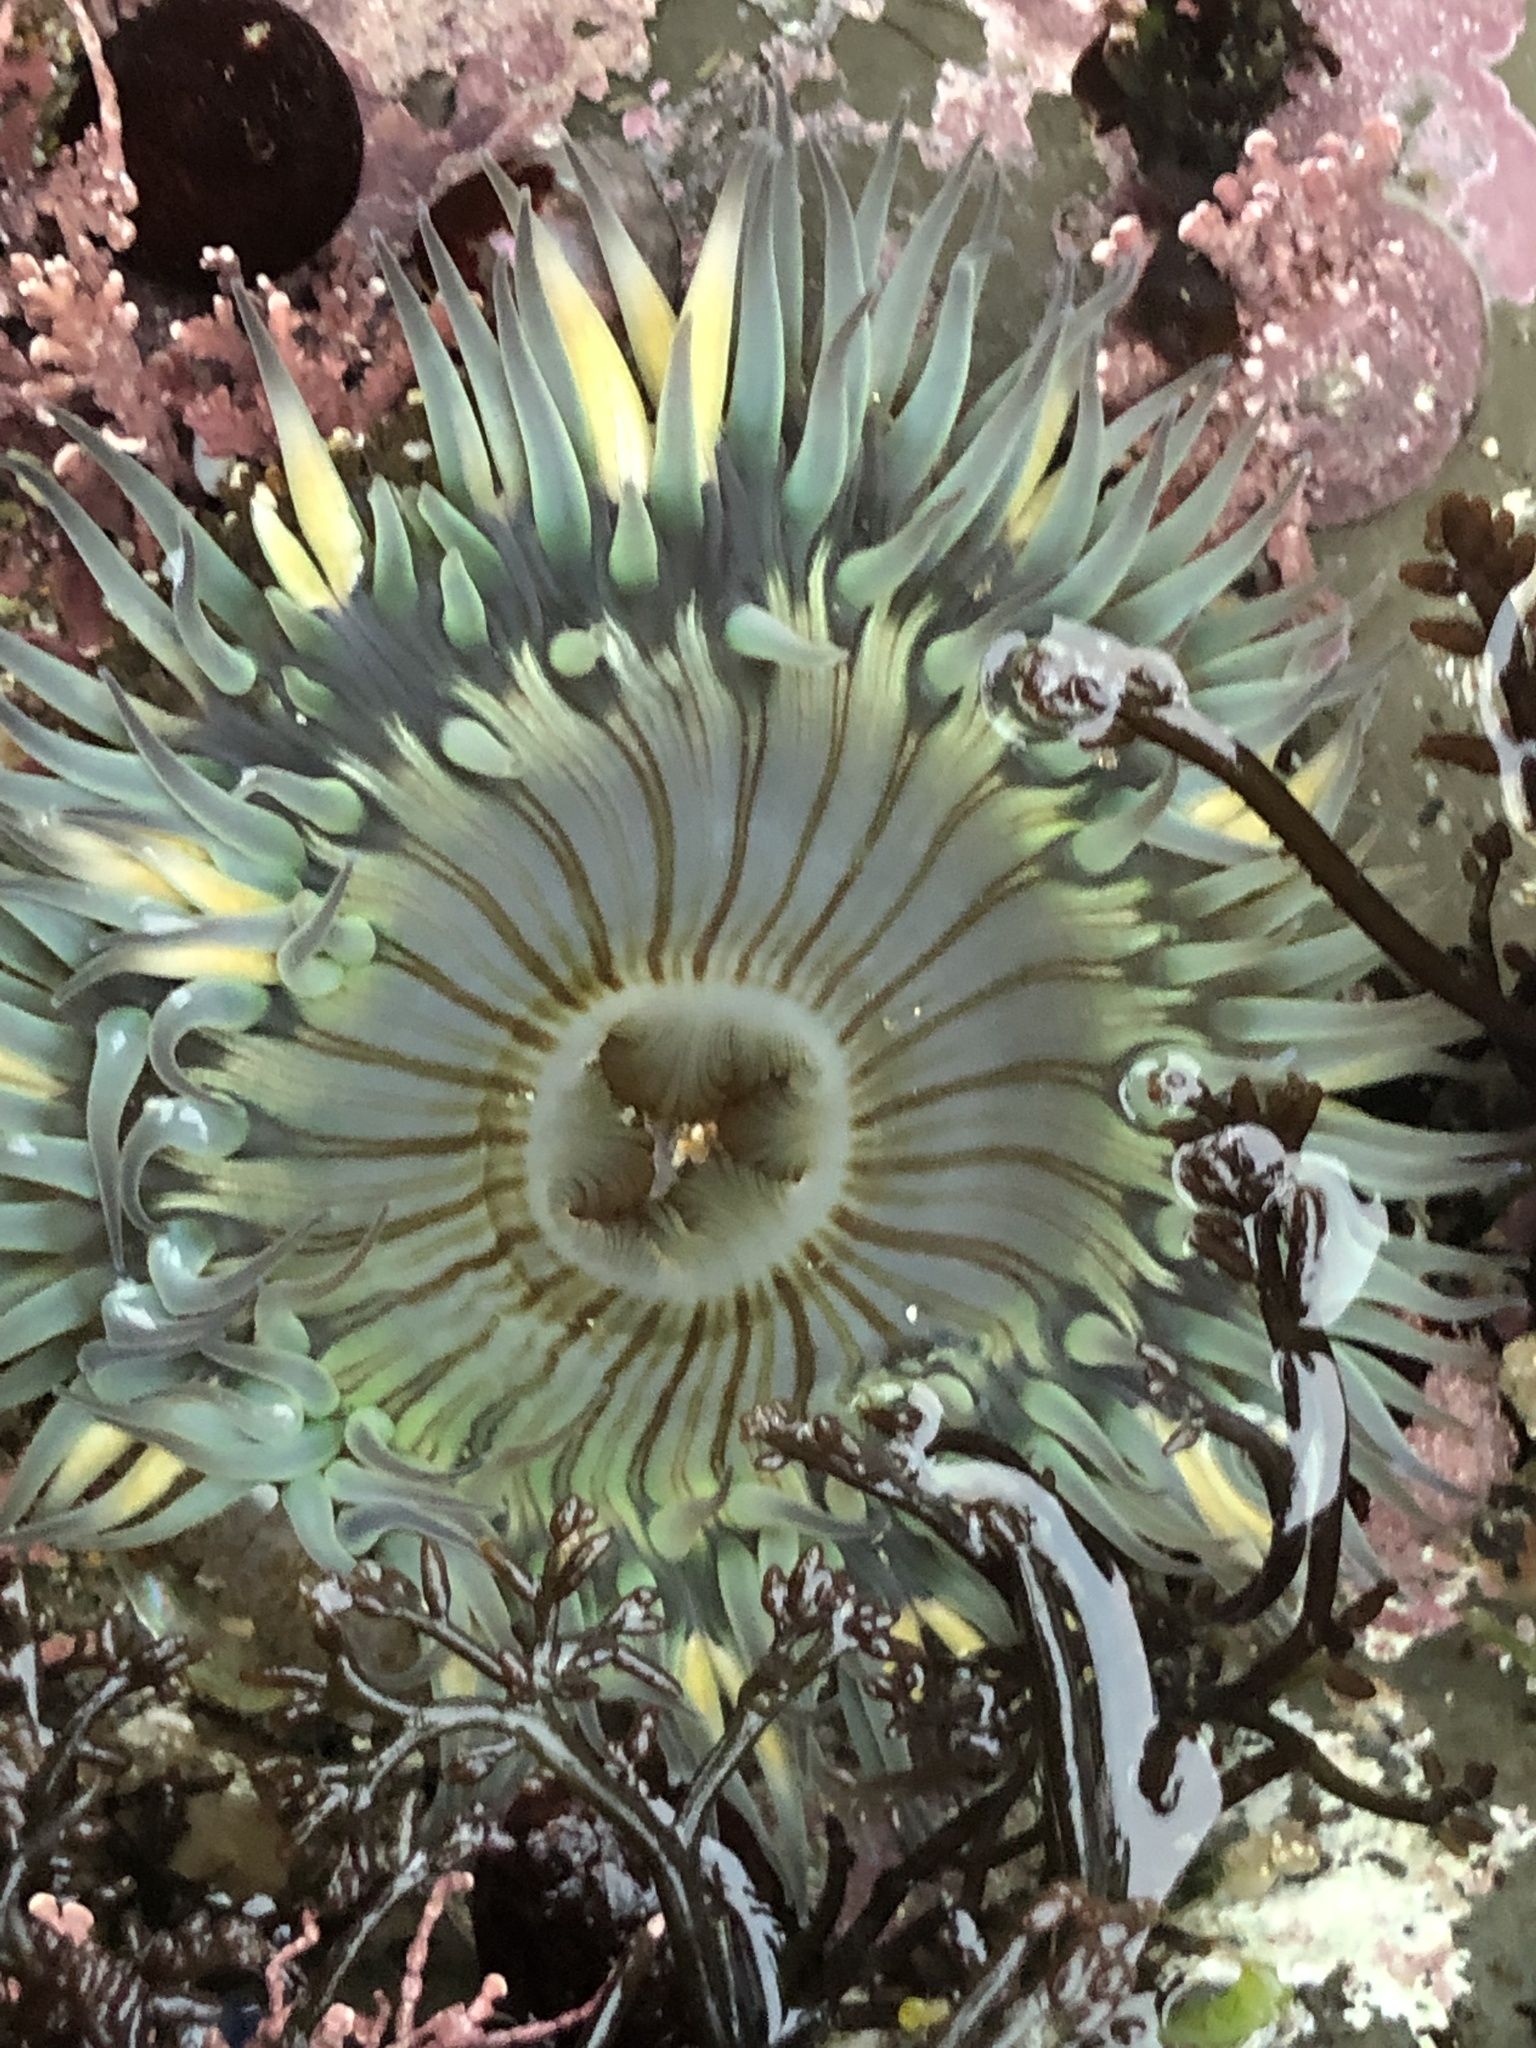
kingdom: Animalia
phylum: Cnidaria
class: Anthozoa
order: Actiniaria
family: Actiniidae
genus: Anthopleura
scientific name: Anthopleura sola
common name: Sun anemone
